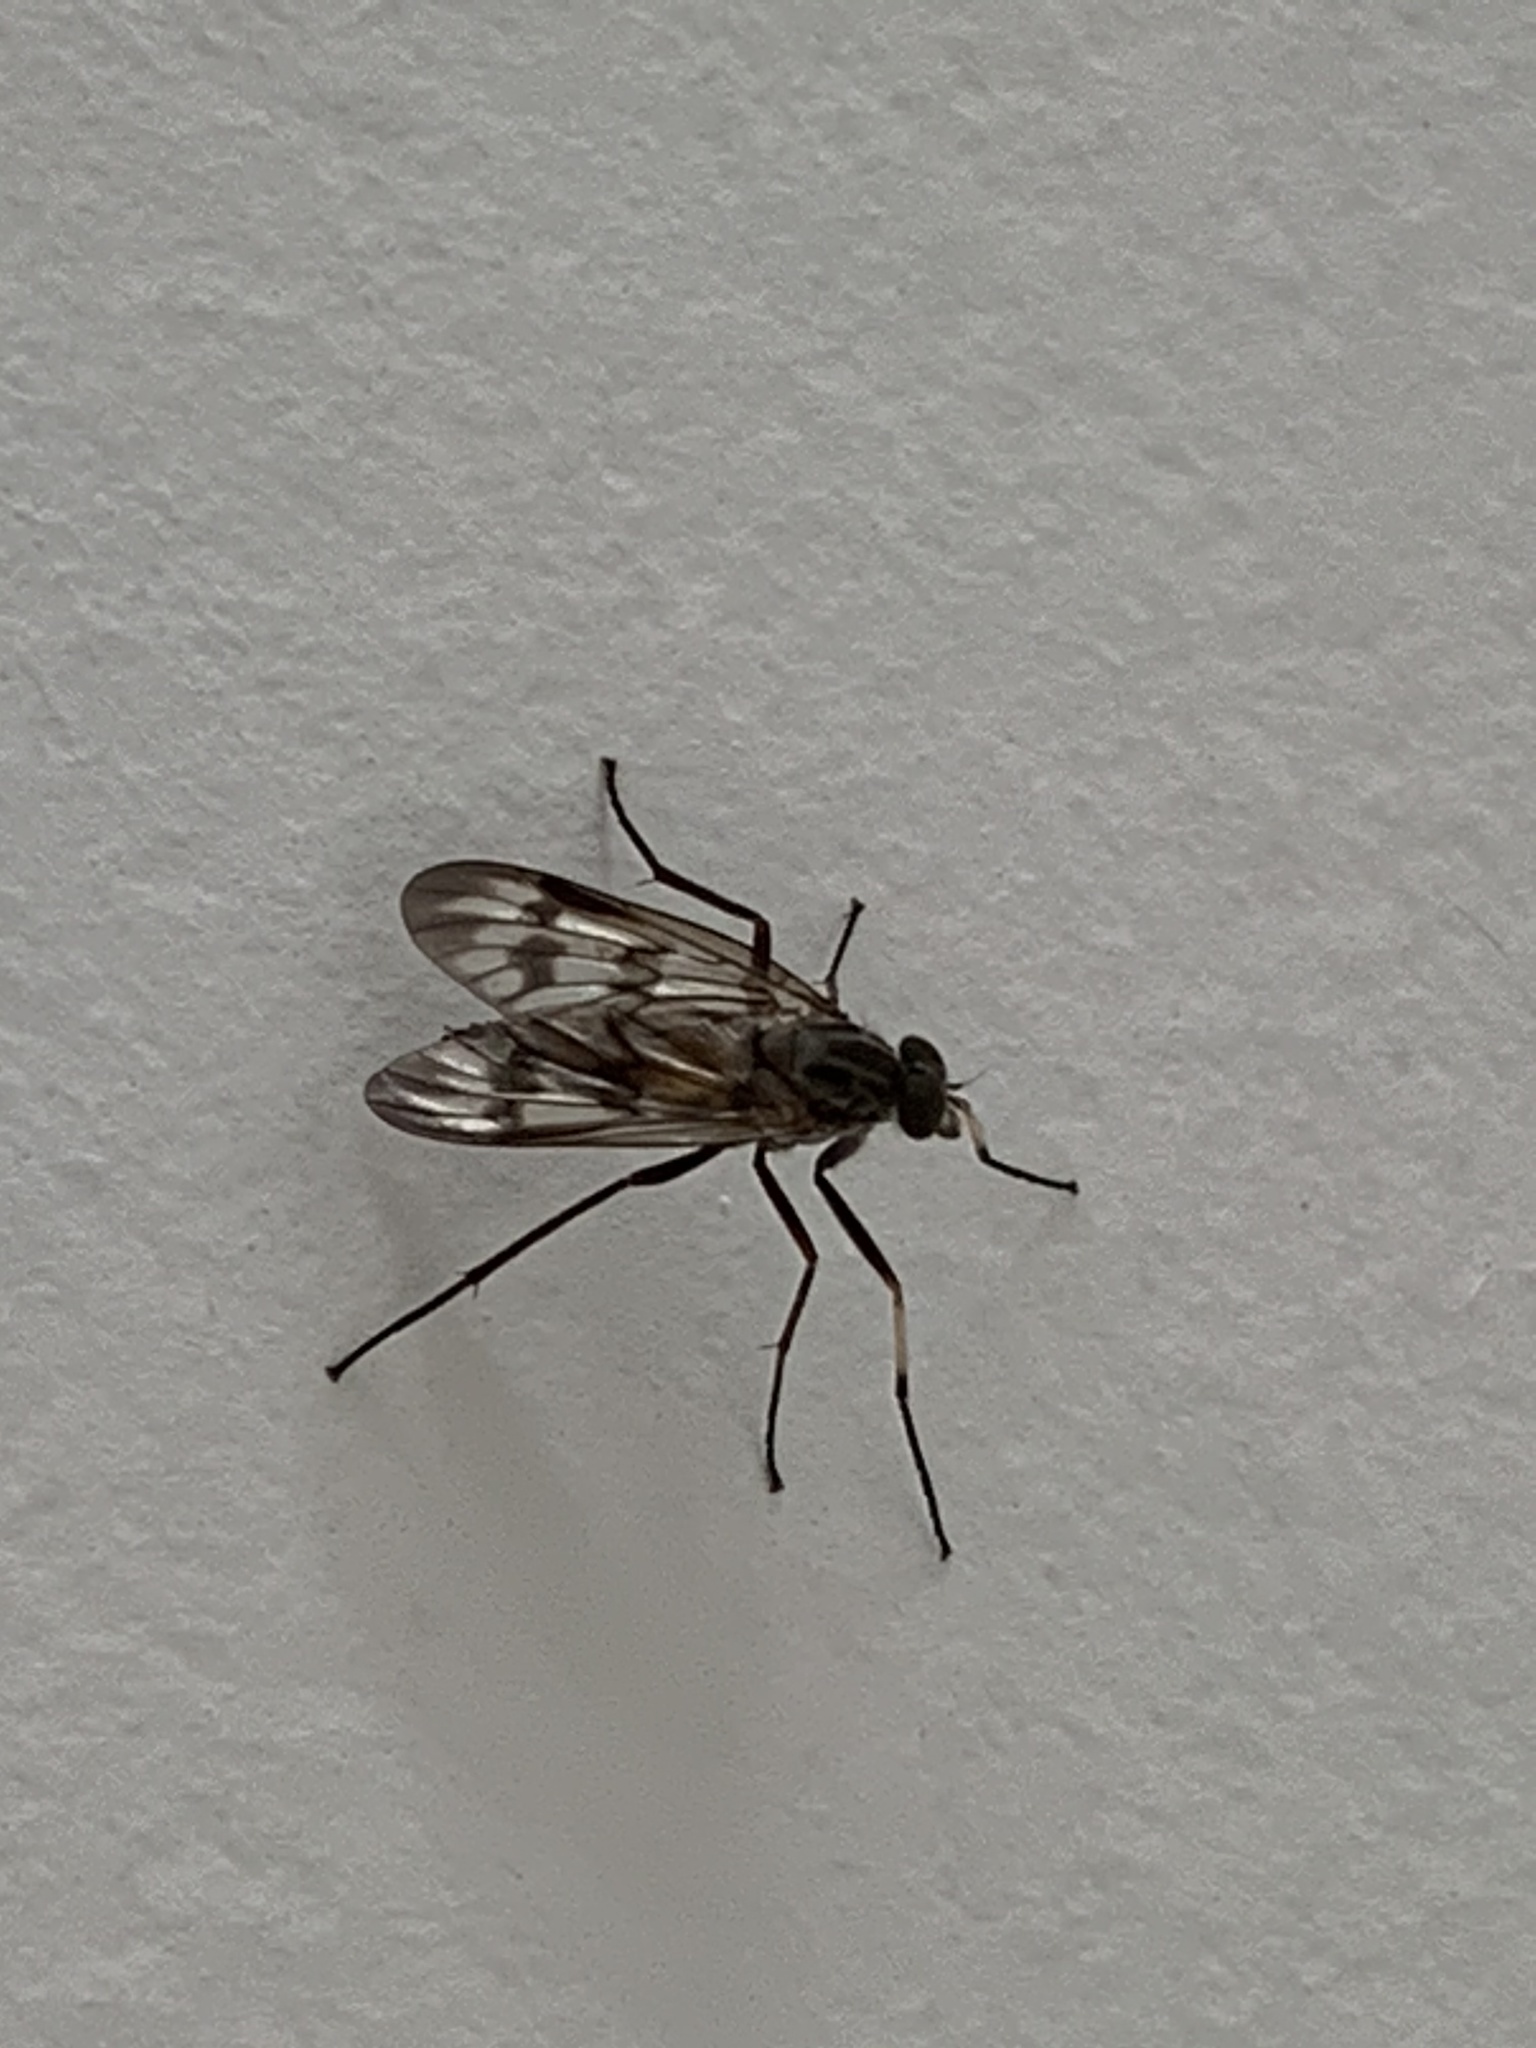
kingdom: Animalia
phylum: Arthropoda
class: Insecta
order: Diptera
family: Rhagionidae
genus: Rhagio
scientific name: Rhagio mystaceus
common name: Common snipe fly
